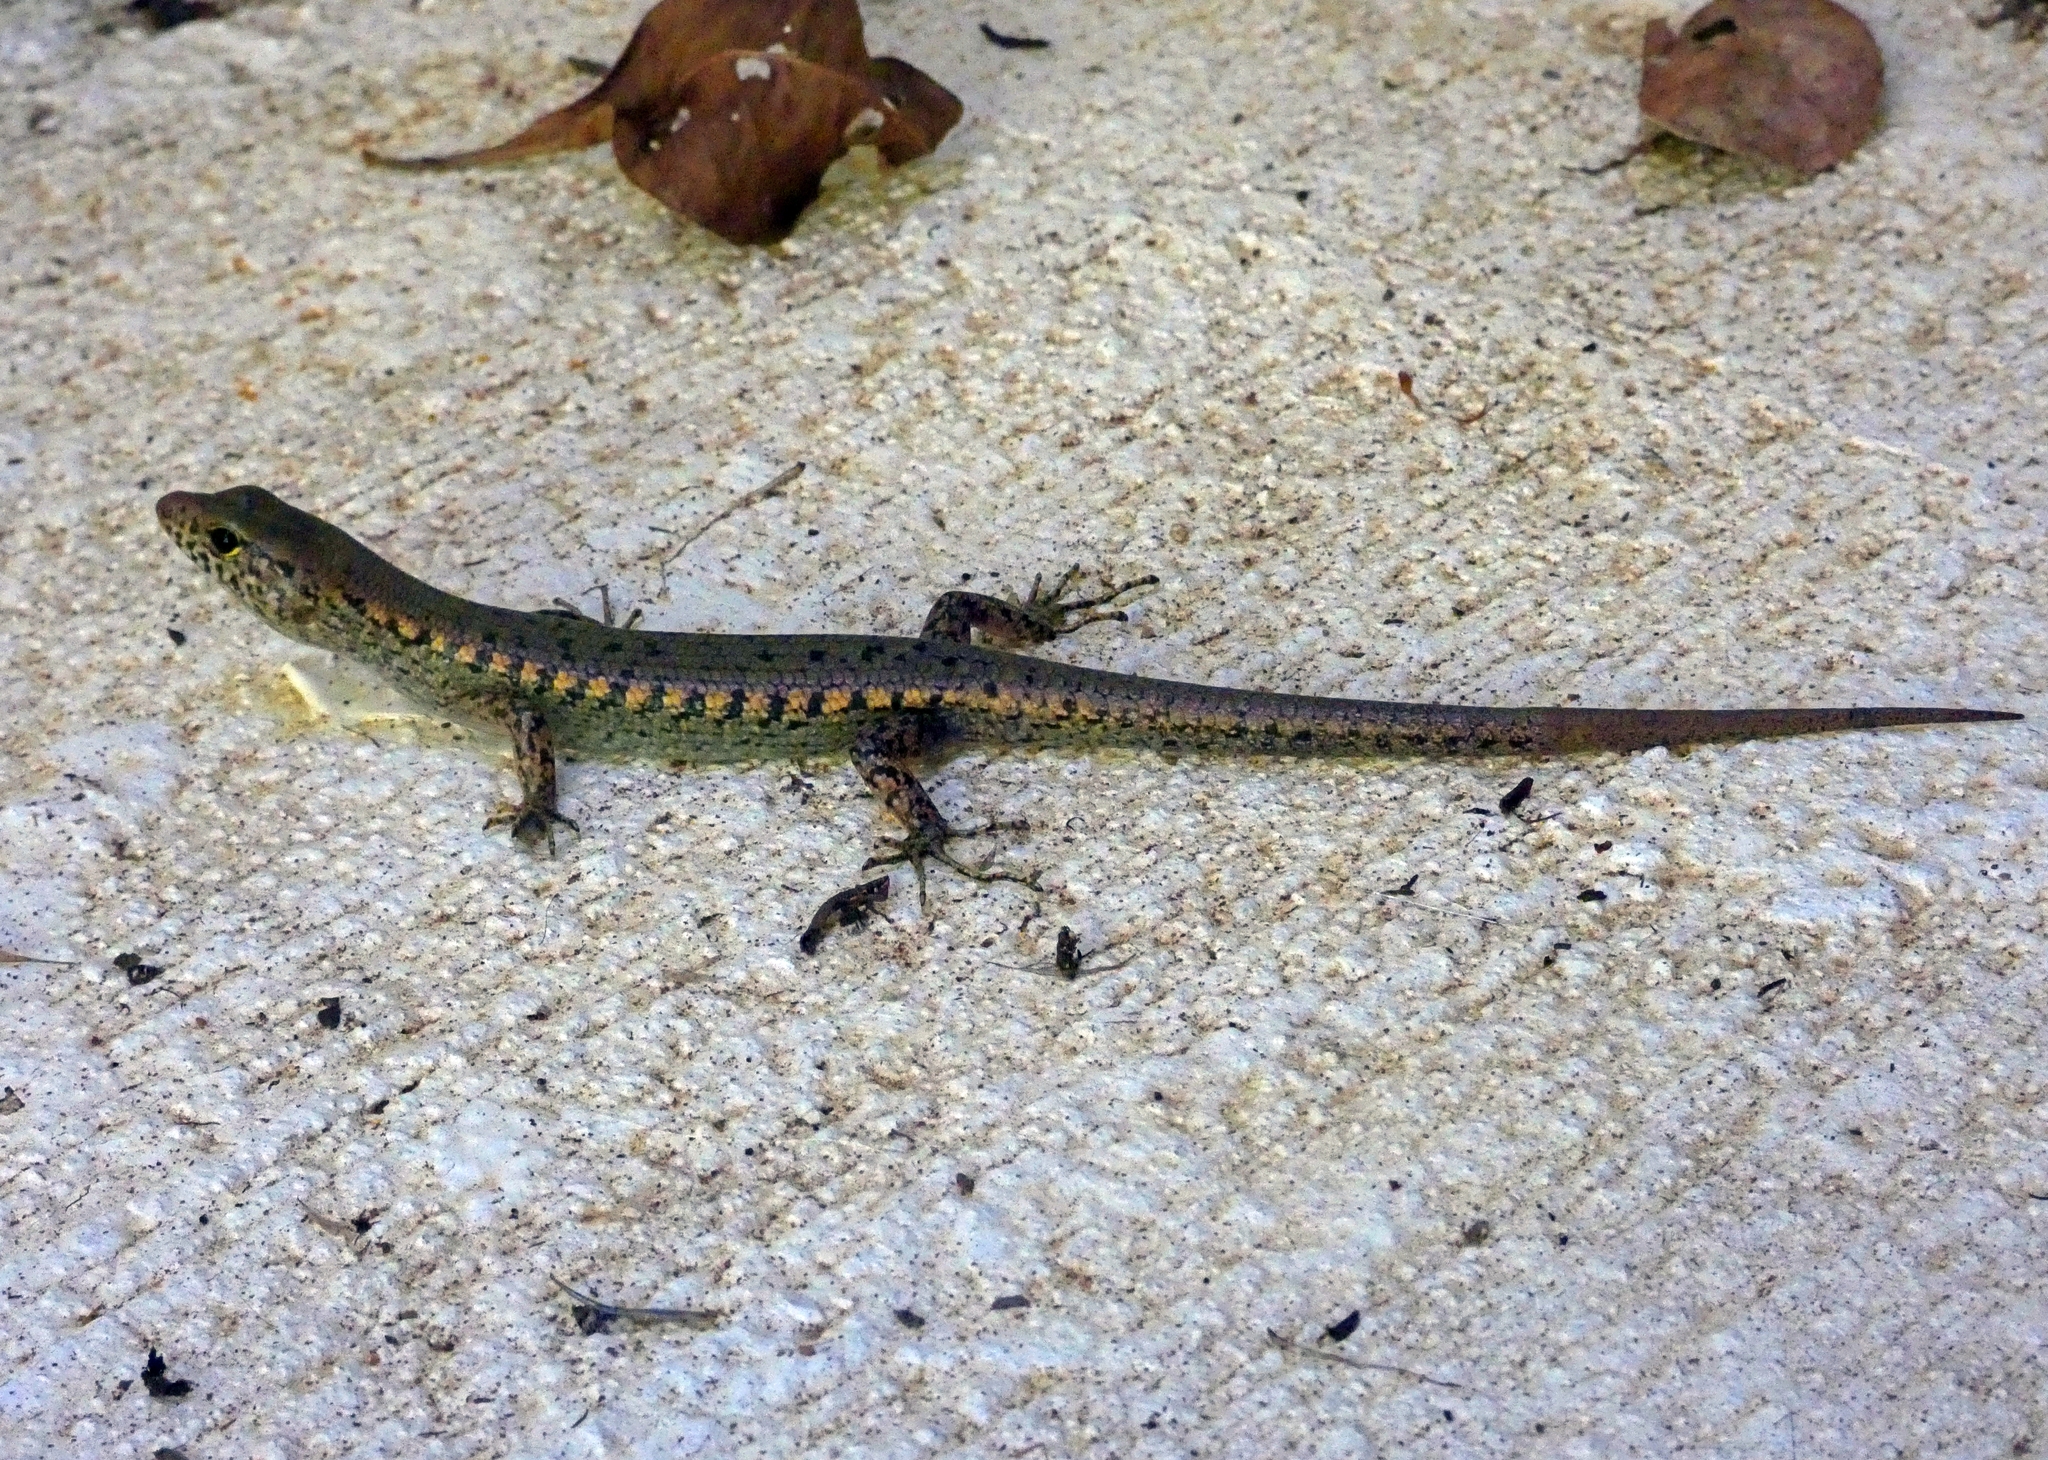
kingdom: Animalia
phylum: Chordata
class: Squamata
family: Scincidae
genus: Concinnia
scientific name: Concinnia tigrina
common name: Rainforest water-skink
